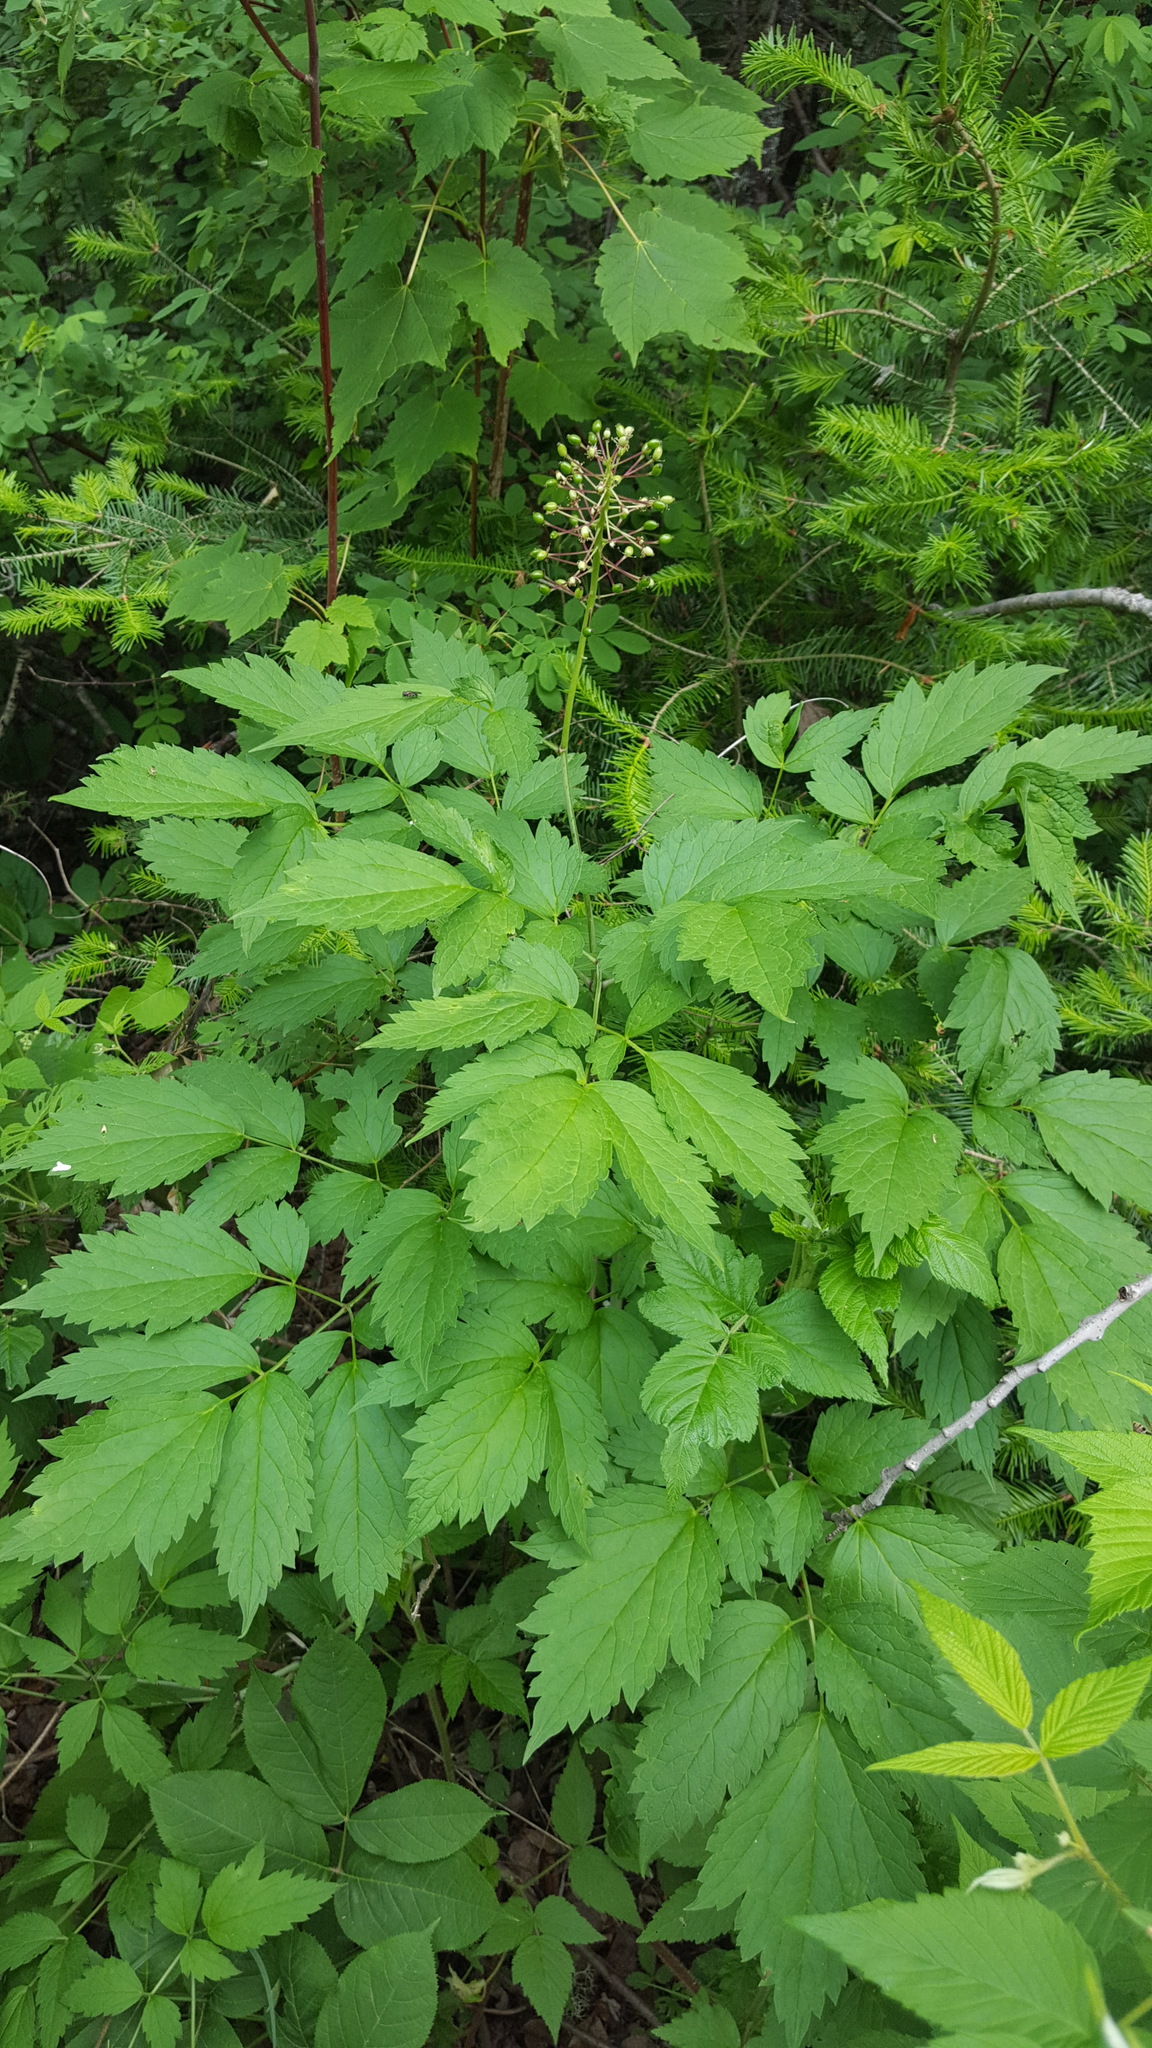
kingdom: Plantae
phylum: Tracheophyta
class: Magnoliopsida
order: Ranunculales
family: Ranunculaceae
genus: Actaea
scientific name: Actaea rubra
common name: Red baneberry
